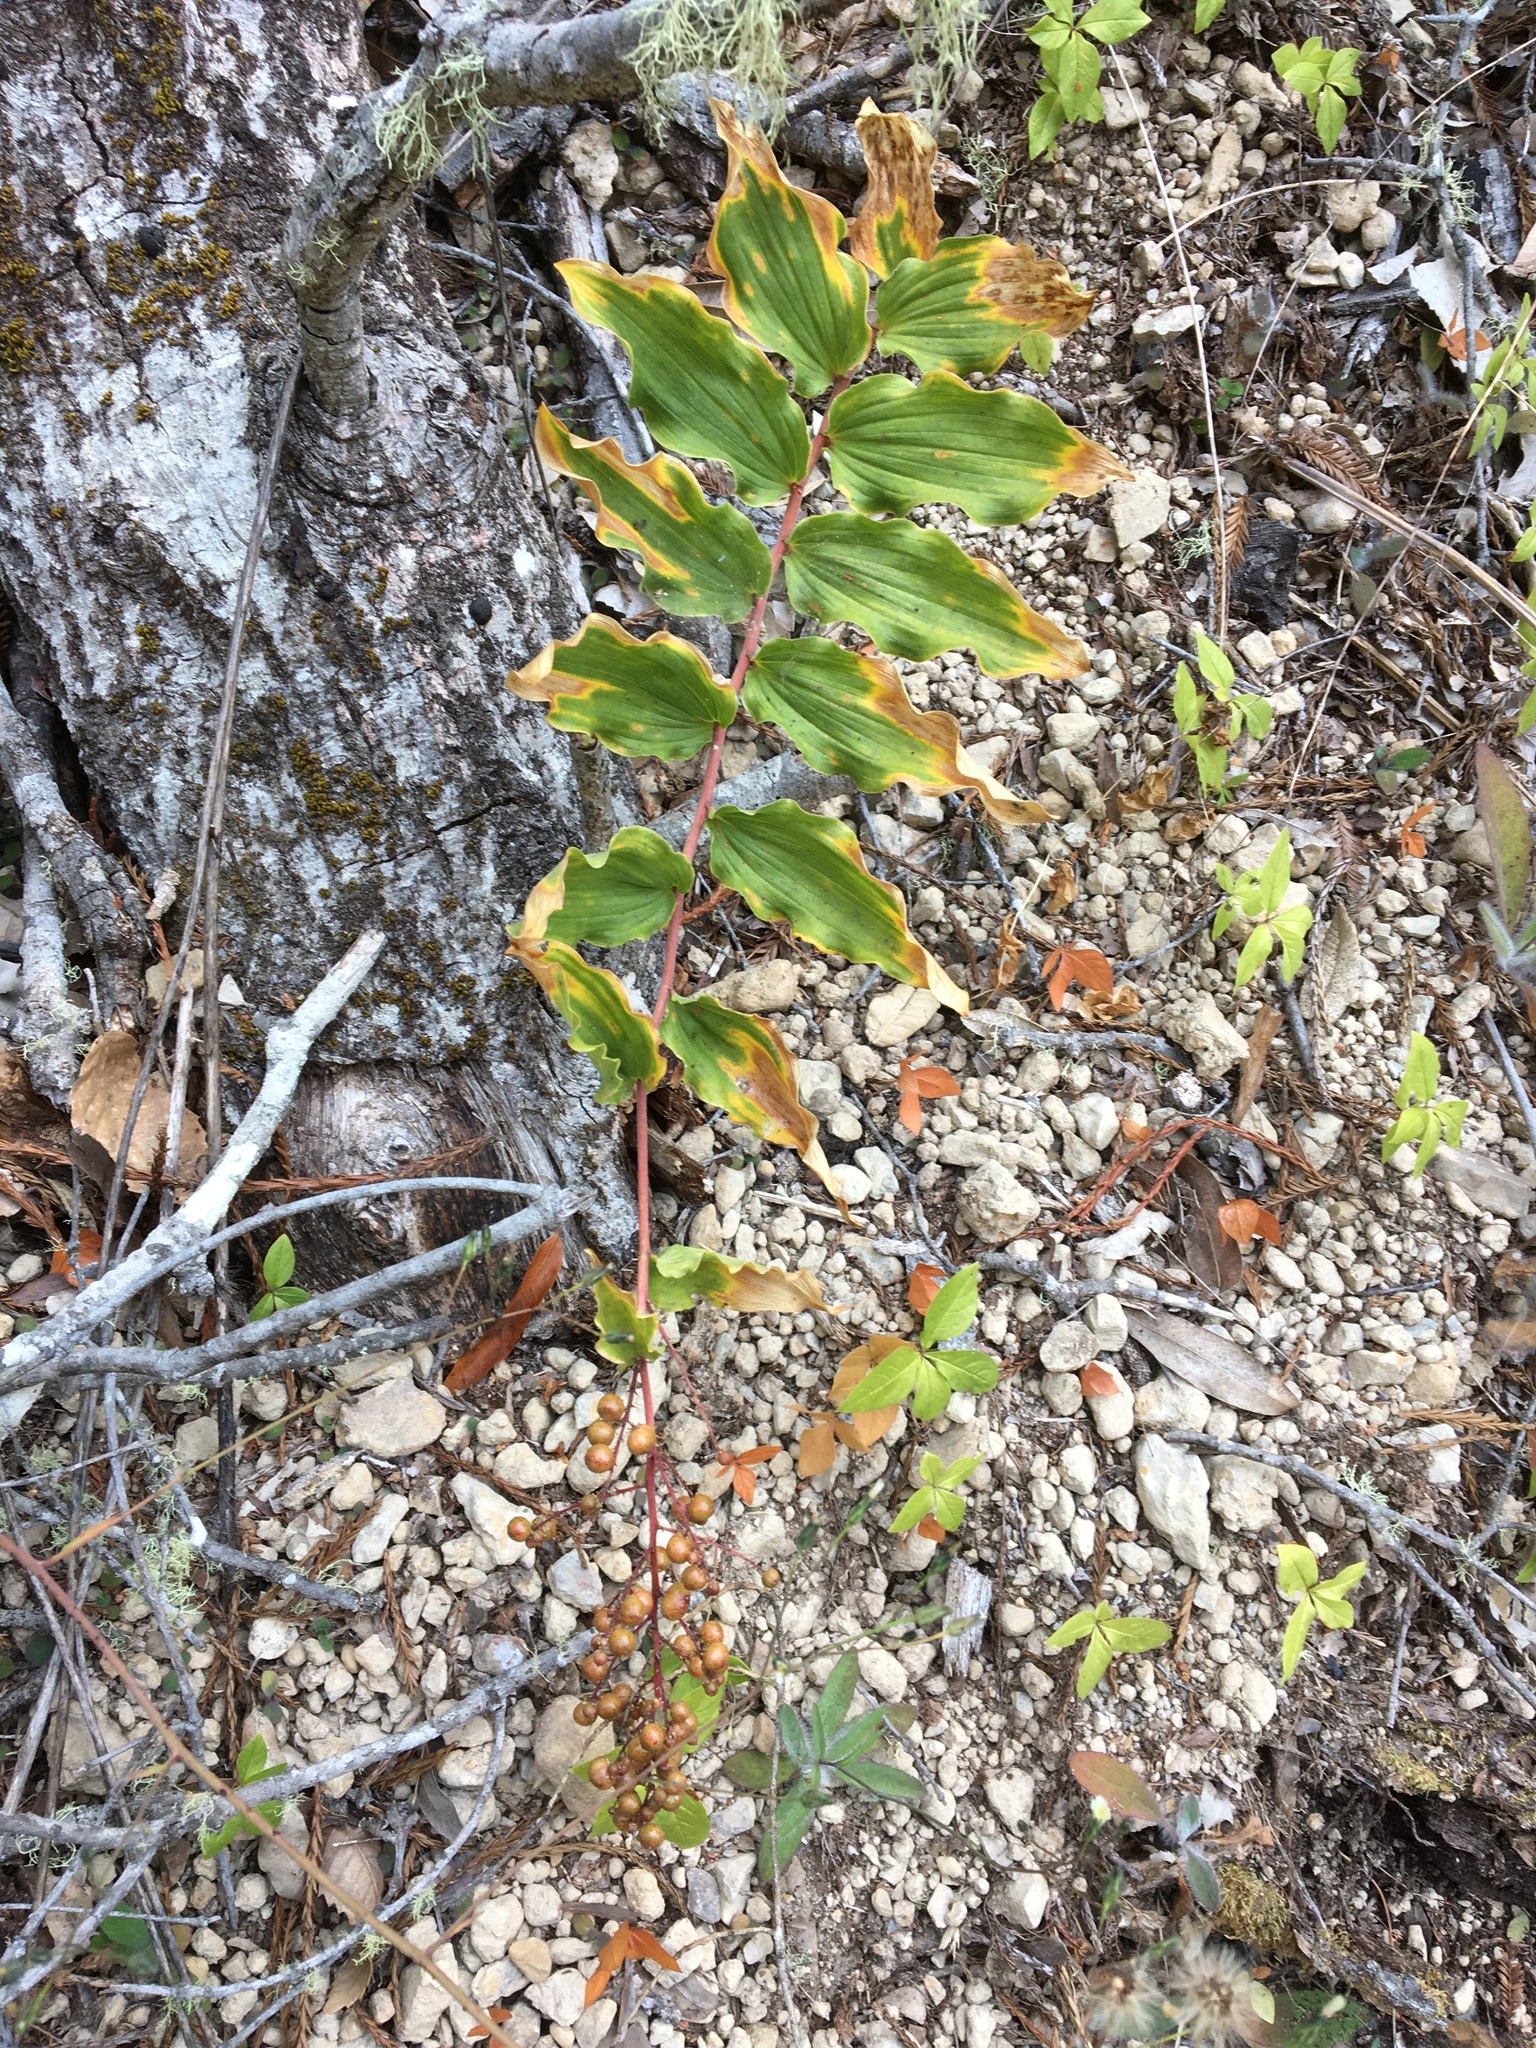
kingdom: Plantae
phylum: Tracheophyta
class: Liliopsida
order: Asparagales
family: Asparagaceae
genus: Maianthemum
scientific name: Maianthemum racemosum
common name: False spikenard
